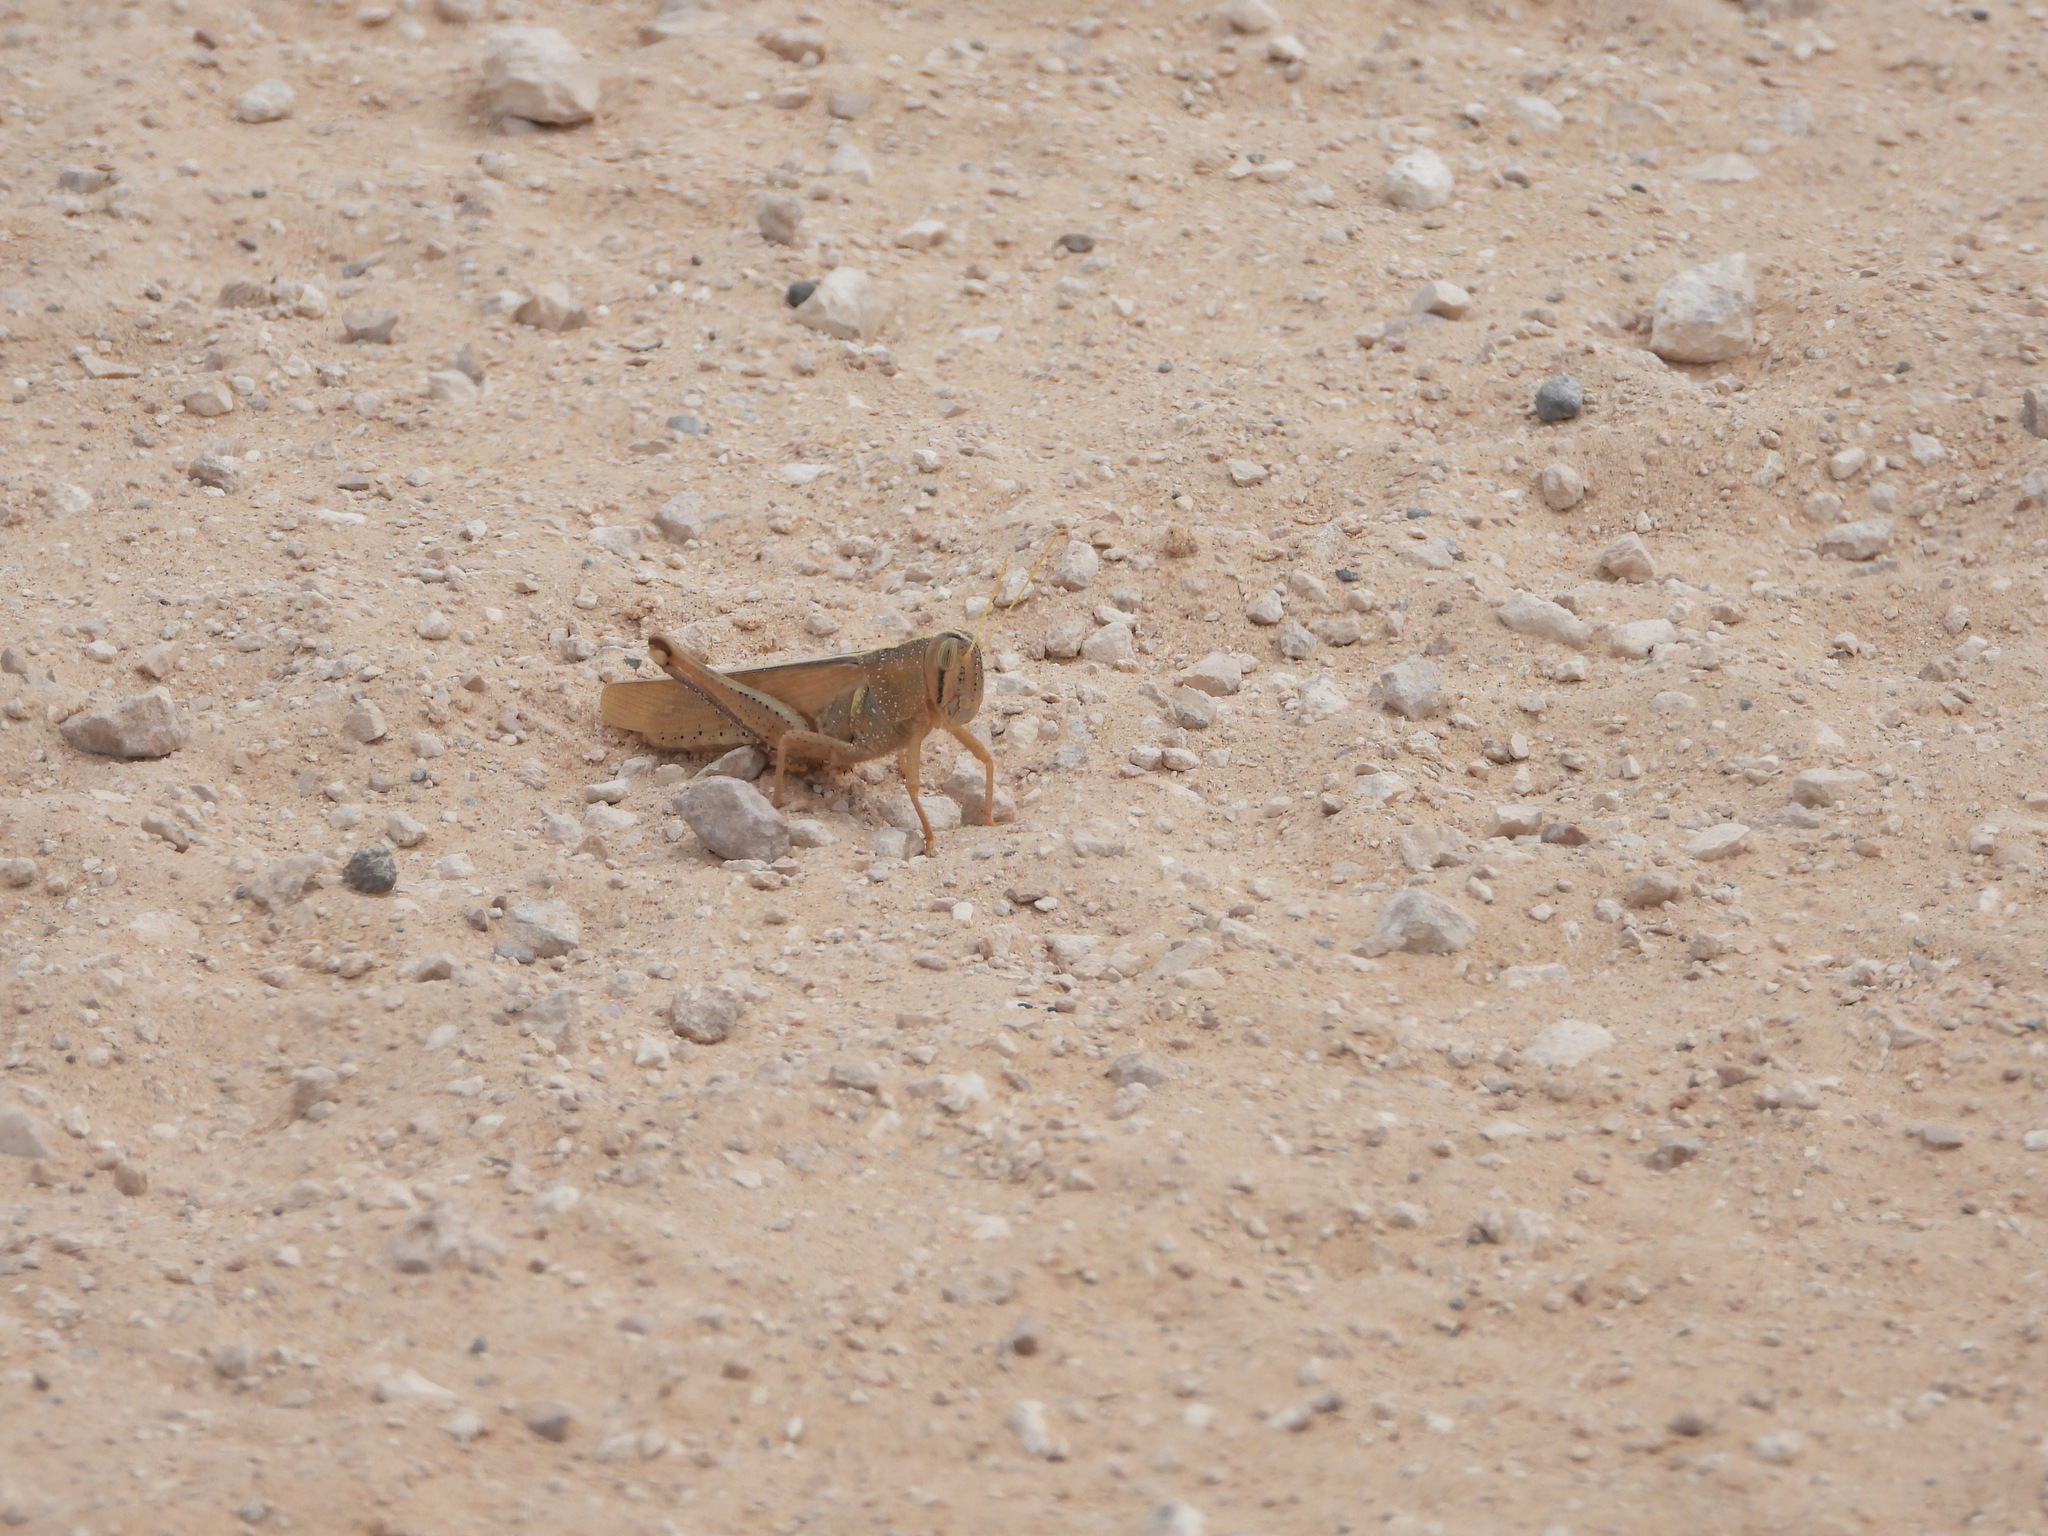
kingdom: Animalia
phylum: Arthropoda
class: Insecta
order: Orthoptera
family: Acrididae
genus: Schistocerca
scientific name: Schistocerca lineata
